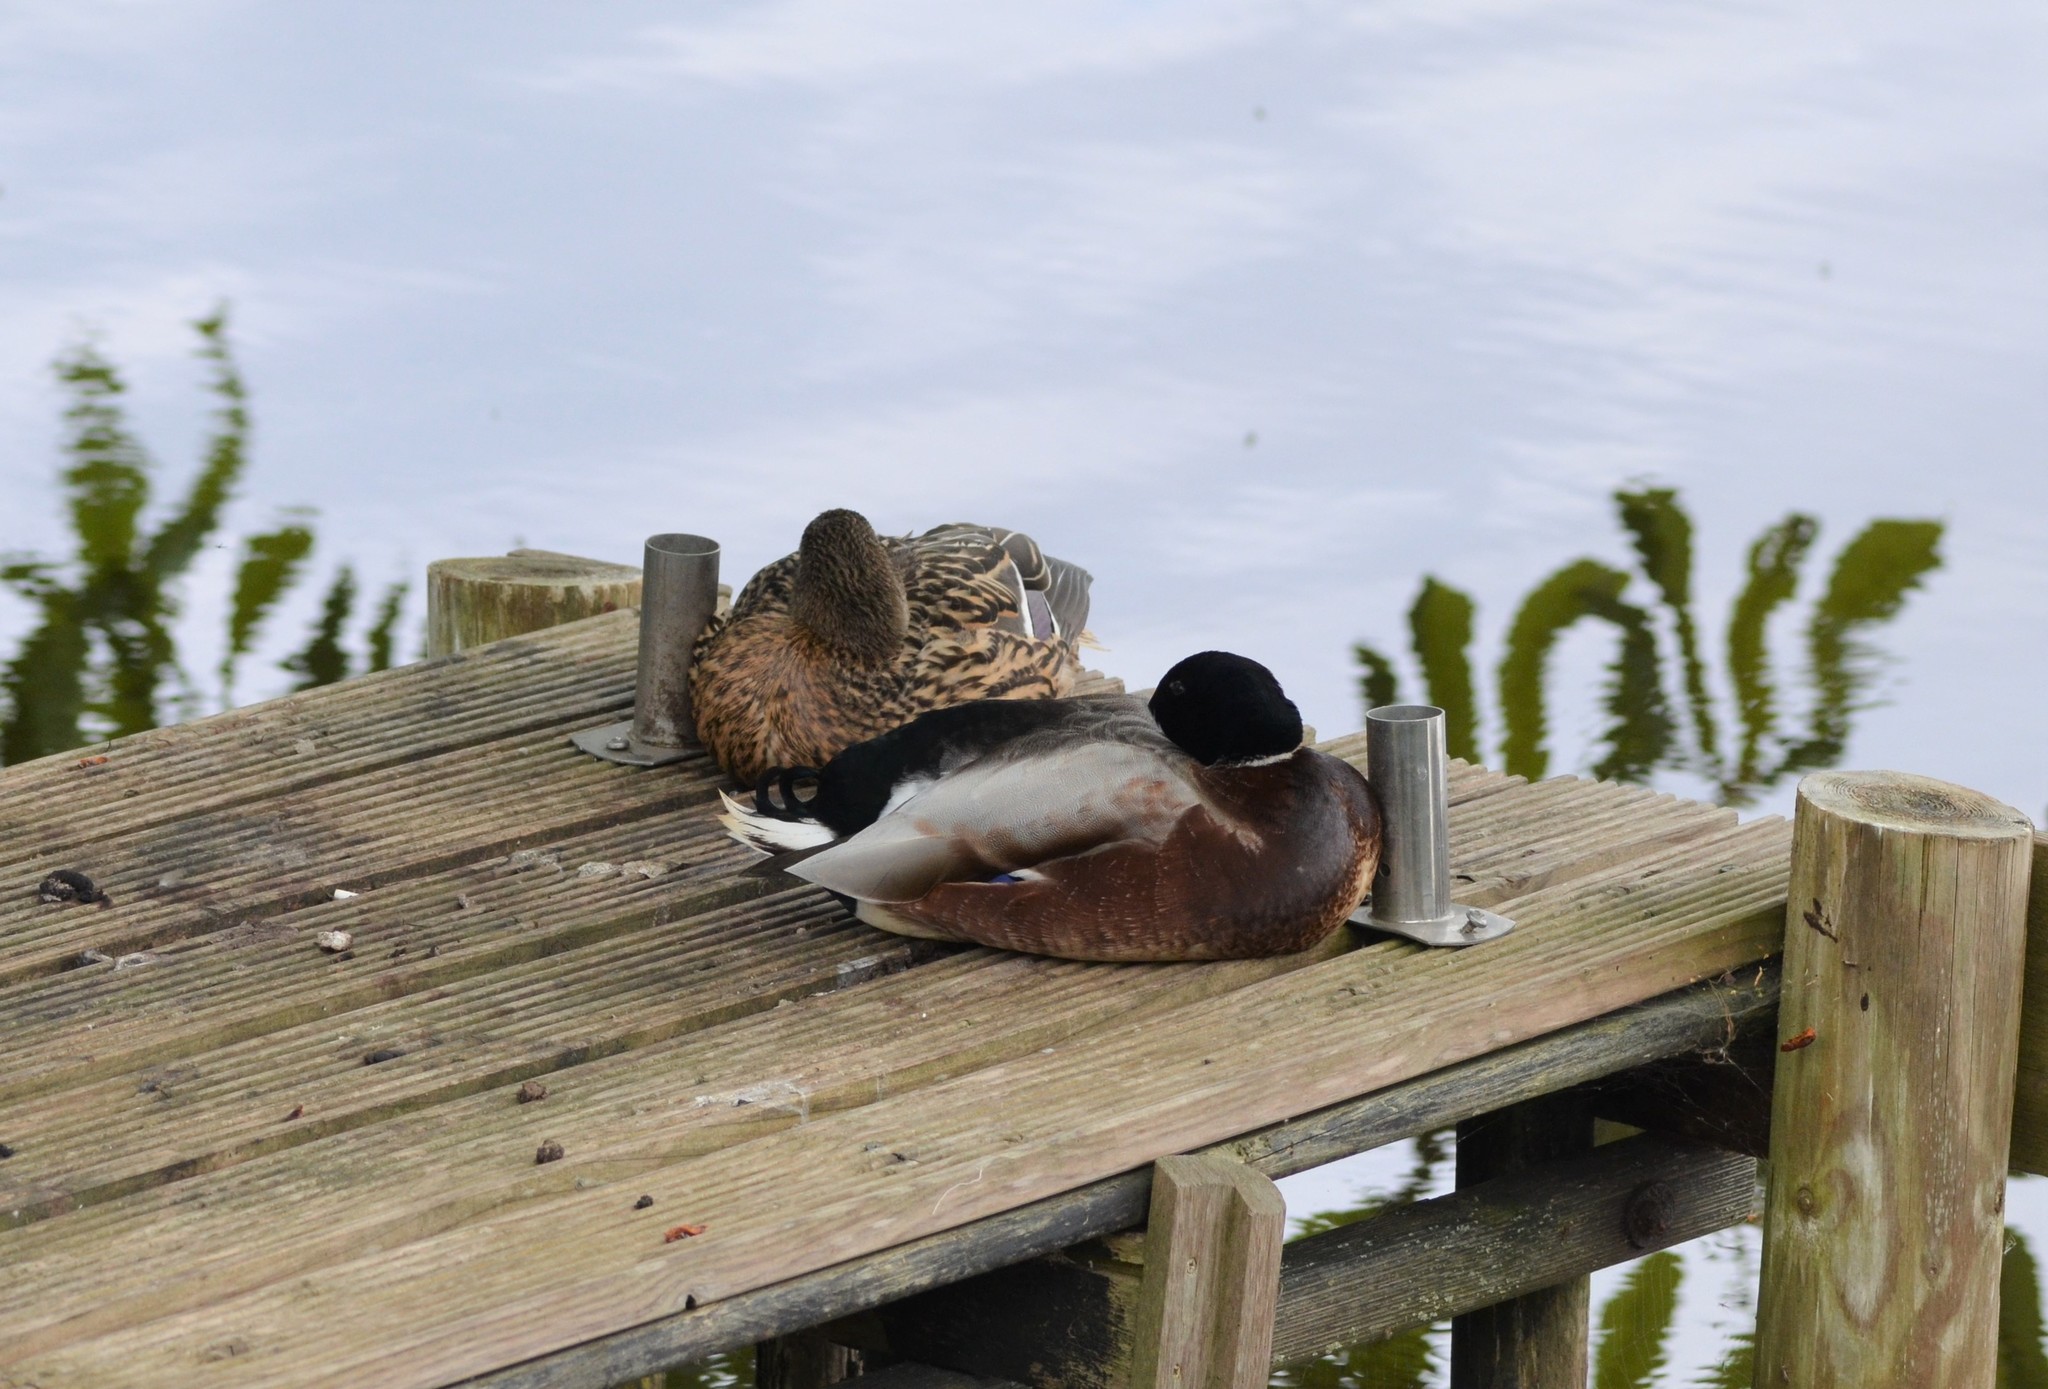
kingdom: Animalia
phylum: Chordata
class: Aves
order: Anseriformes
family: Anatidae
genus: Anas
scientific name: Anas platyrhynchos
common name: Mallard
